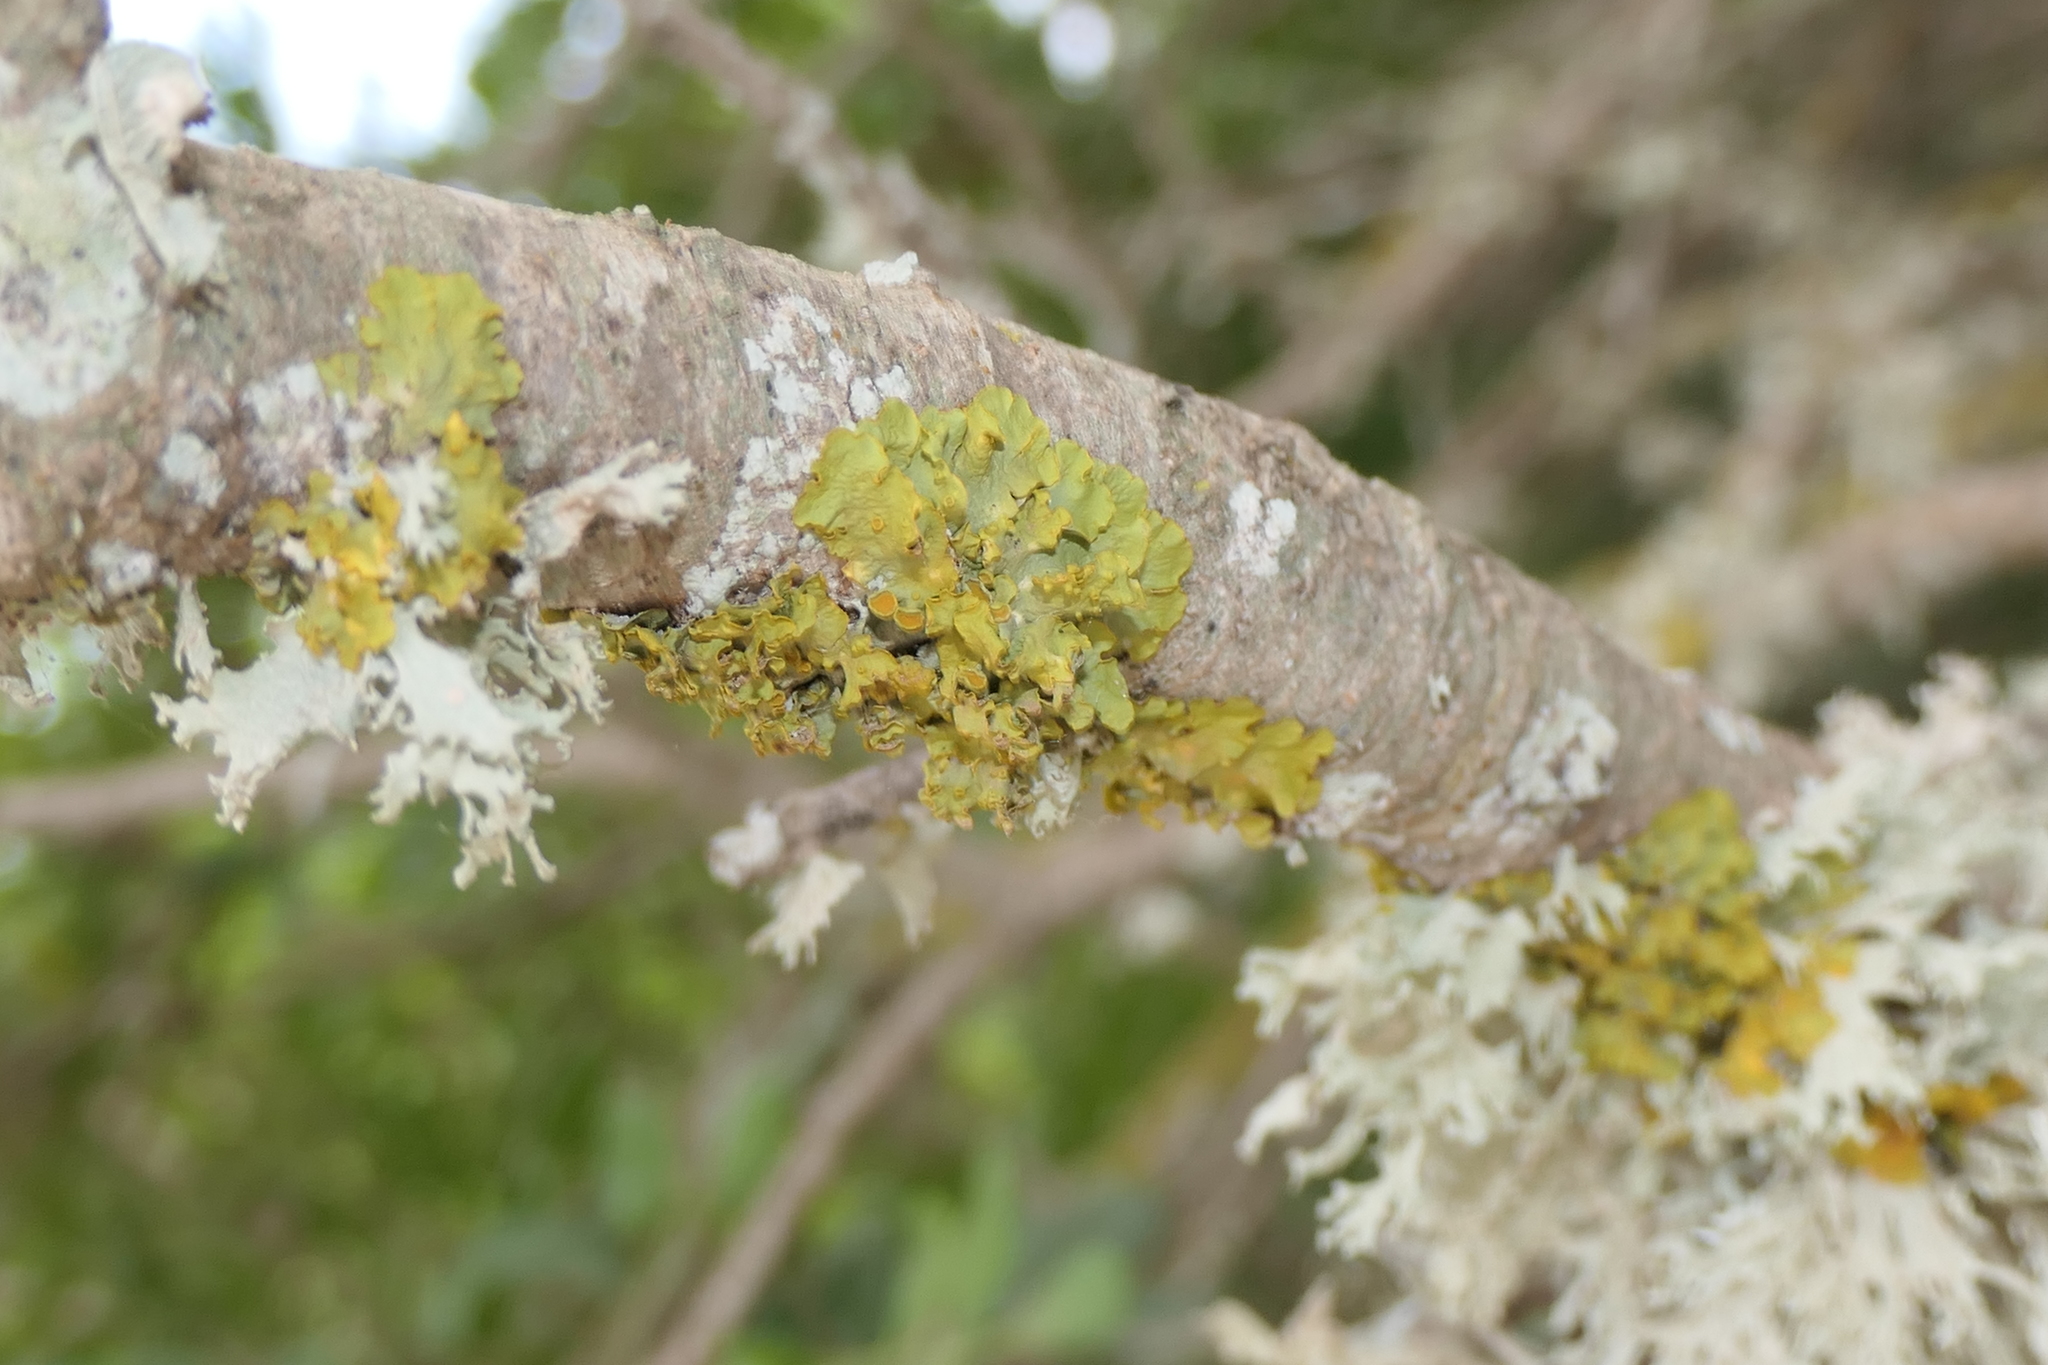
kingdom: Fungi
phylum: Ascomycota
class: Lecanoromycetes
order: Teloschistales
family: Teloschistaceae
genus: Xanthoria
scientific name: Xanthoria parietina
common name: Common orange lichen
